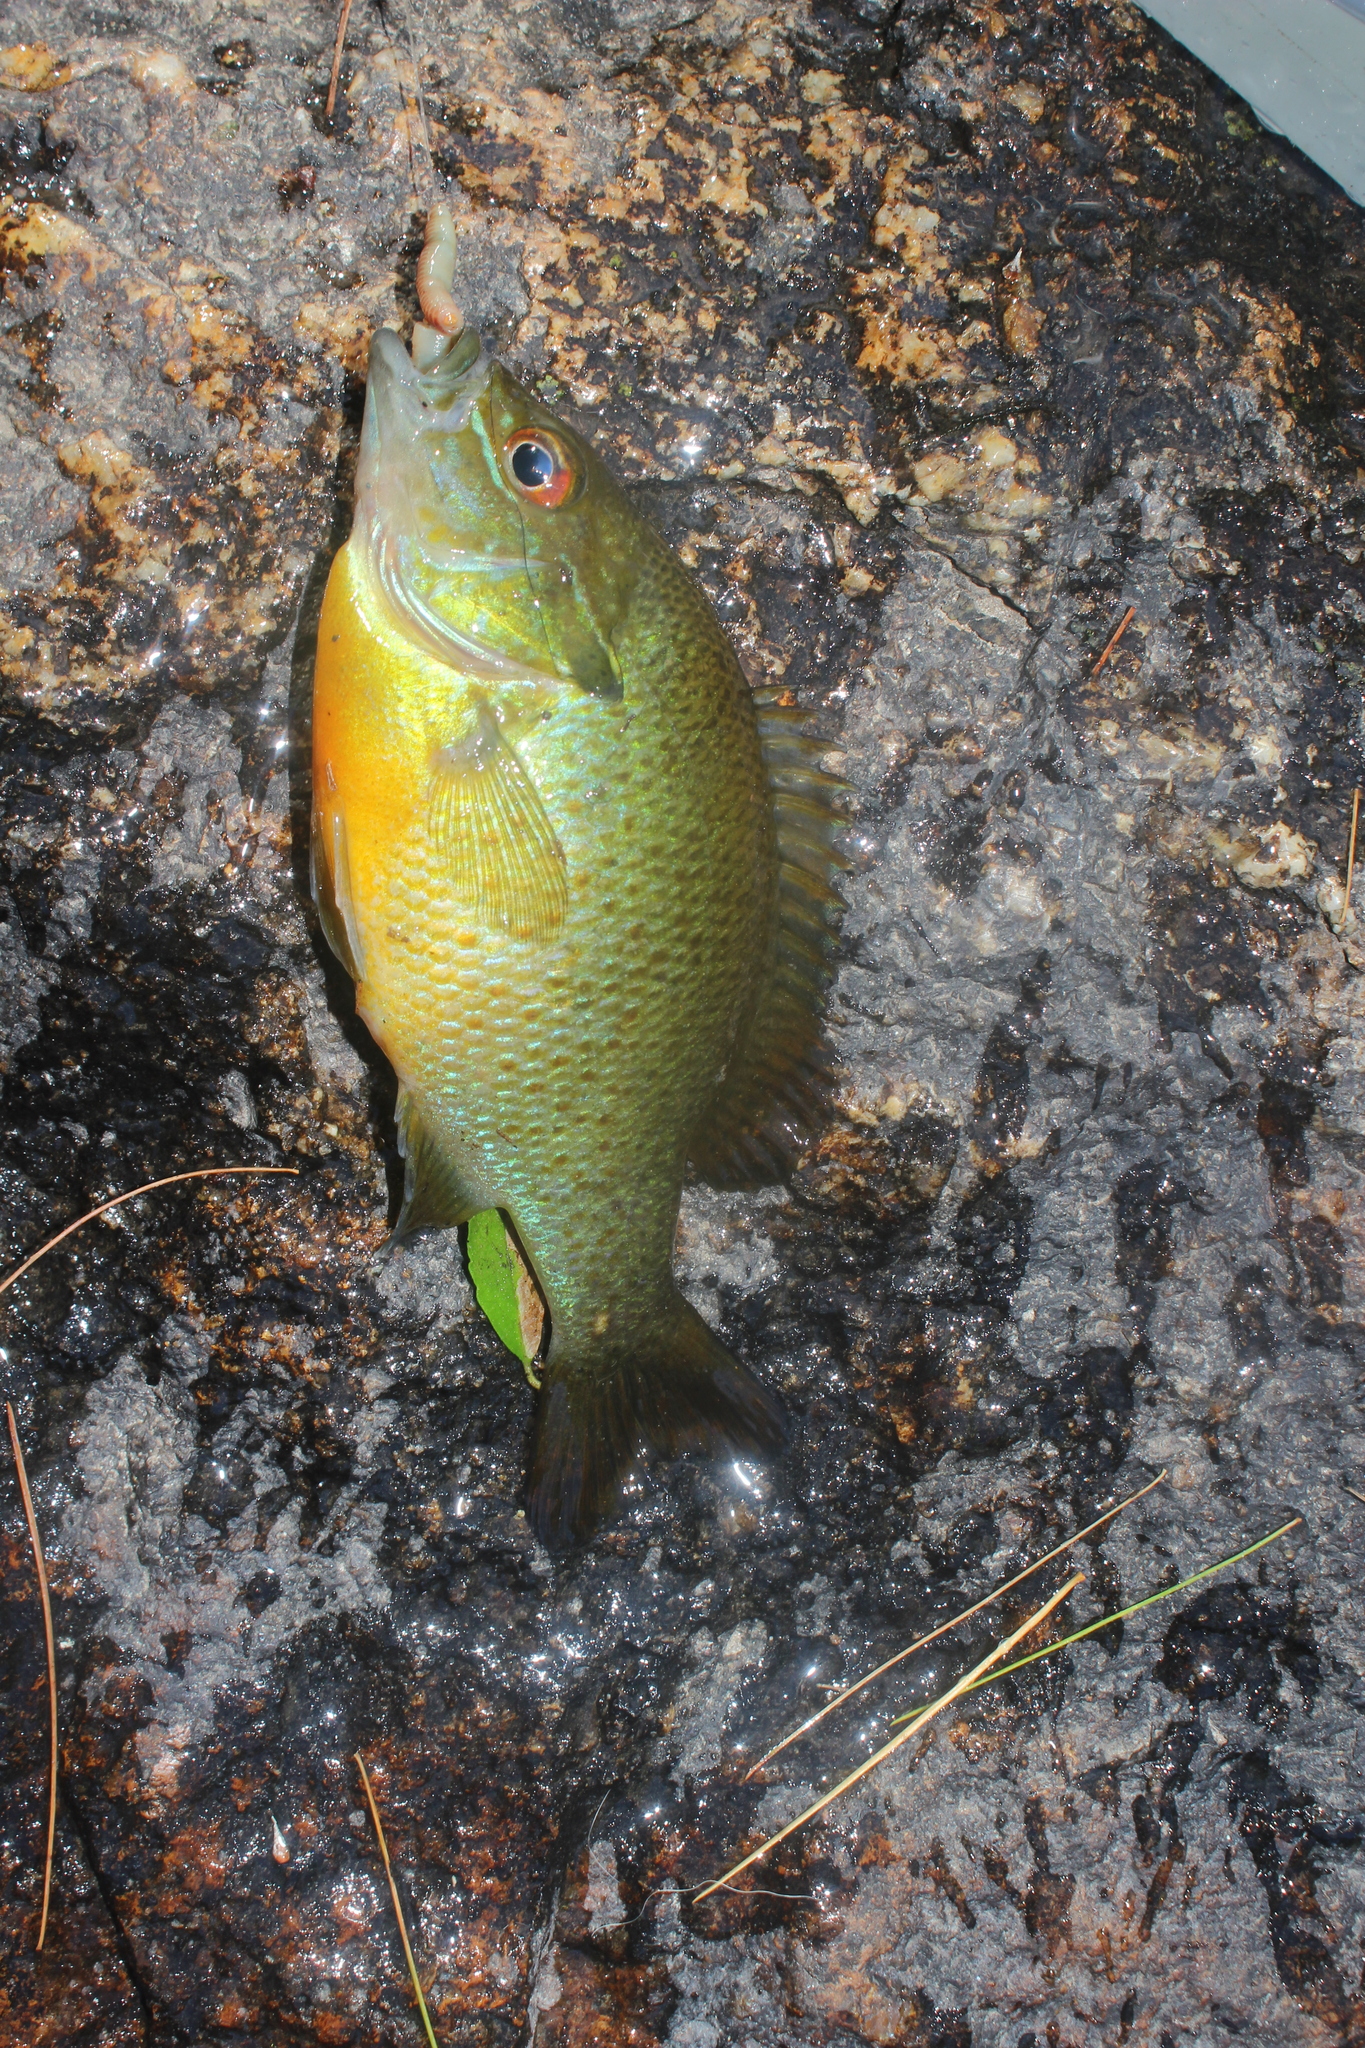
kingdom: Animalia
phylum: Chordata
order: Perciformes
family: Centrarchidae
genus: Lepomis
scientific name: Lepomis auritus
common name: Redbreast sunfish
